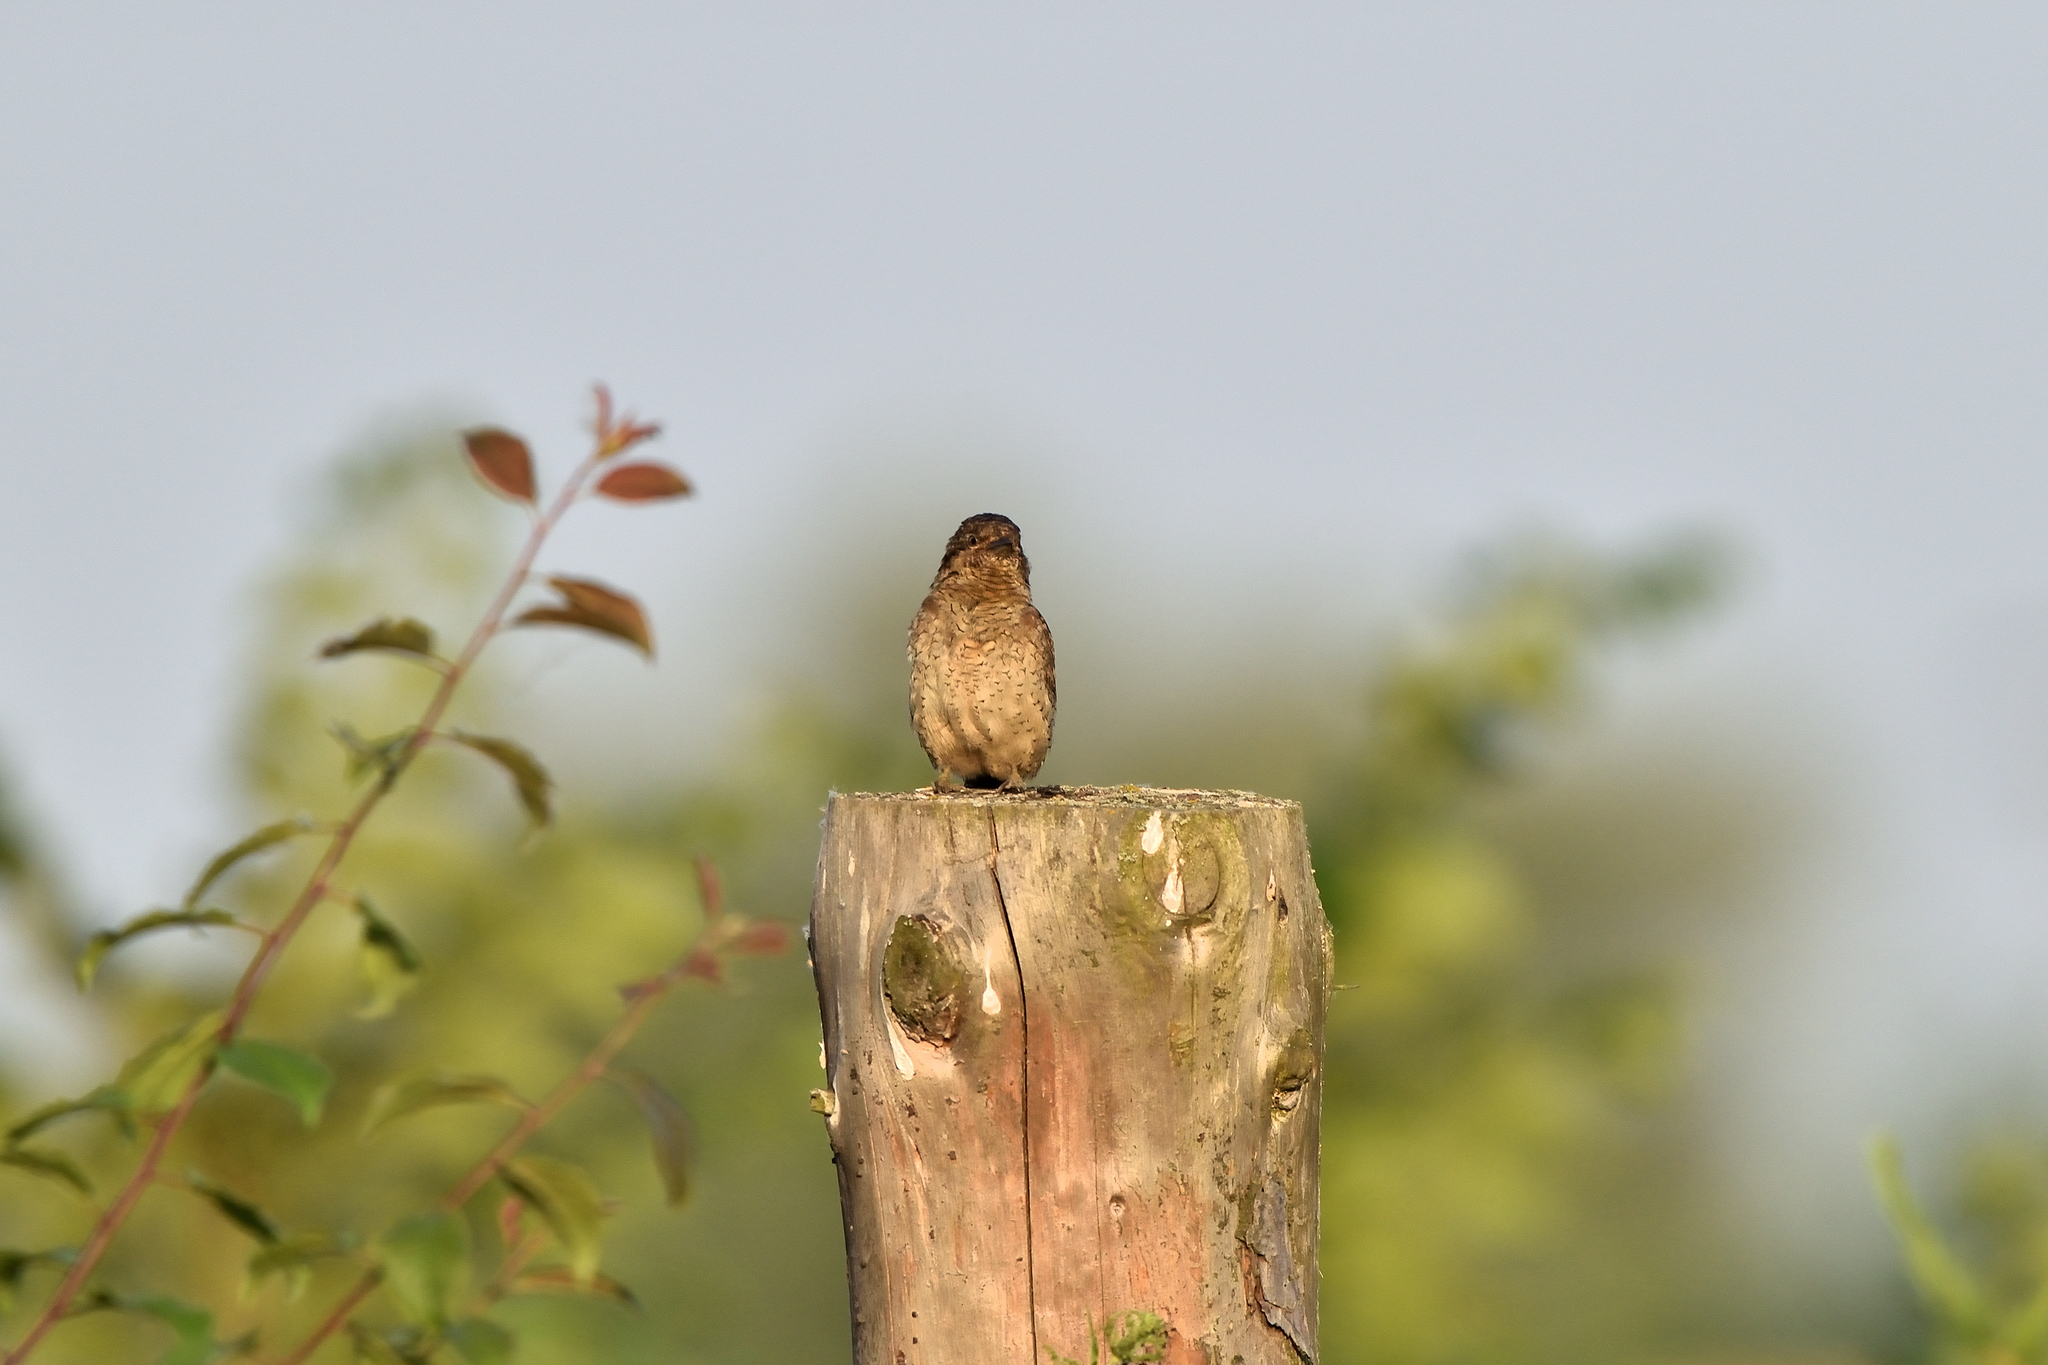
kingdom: Animalia
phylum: Chordata
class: Aves
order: Piciformes
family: Picidae
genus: Jynx
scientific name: Jynx torquilla
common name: Eurasian wryneck
